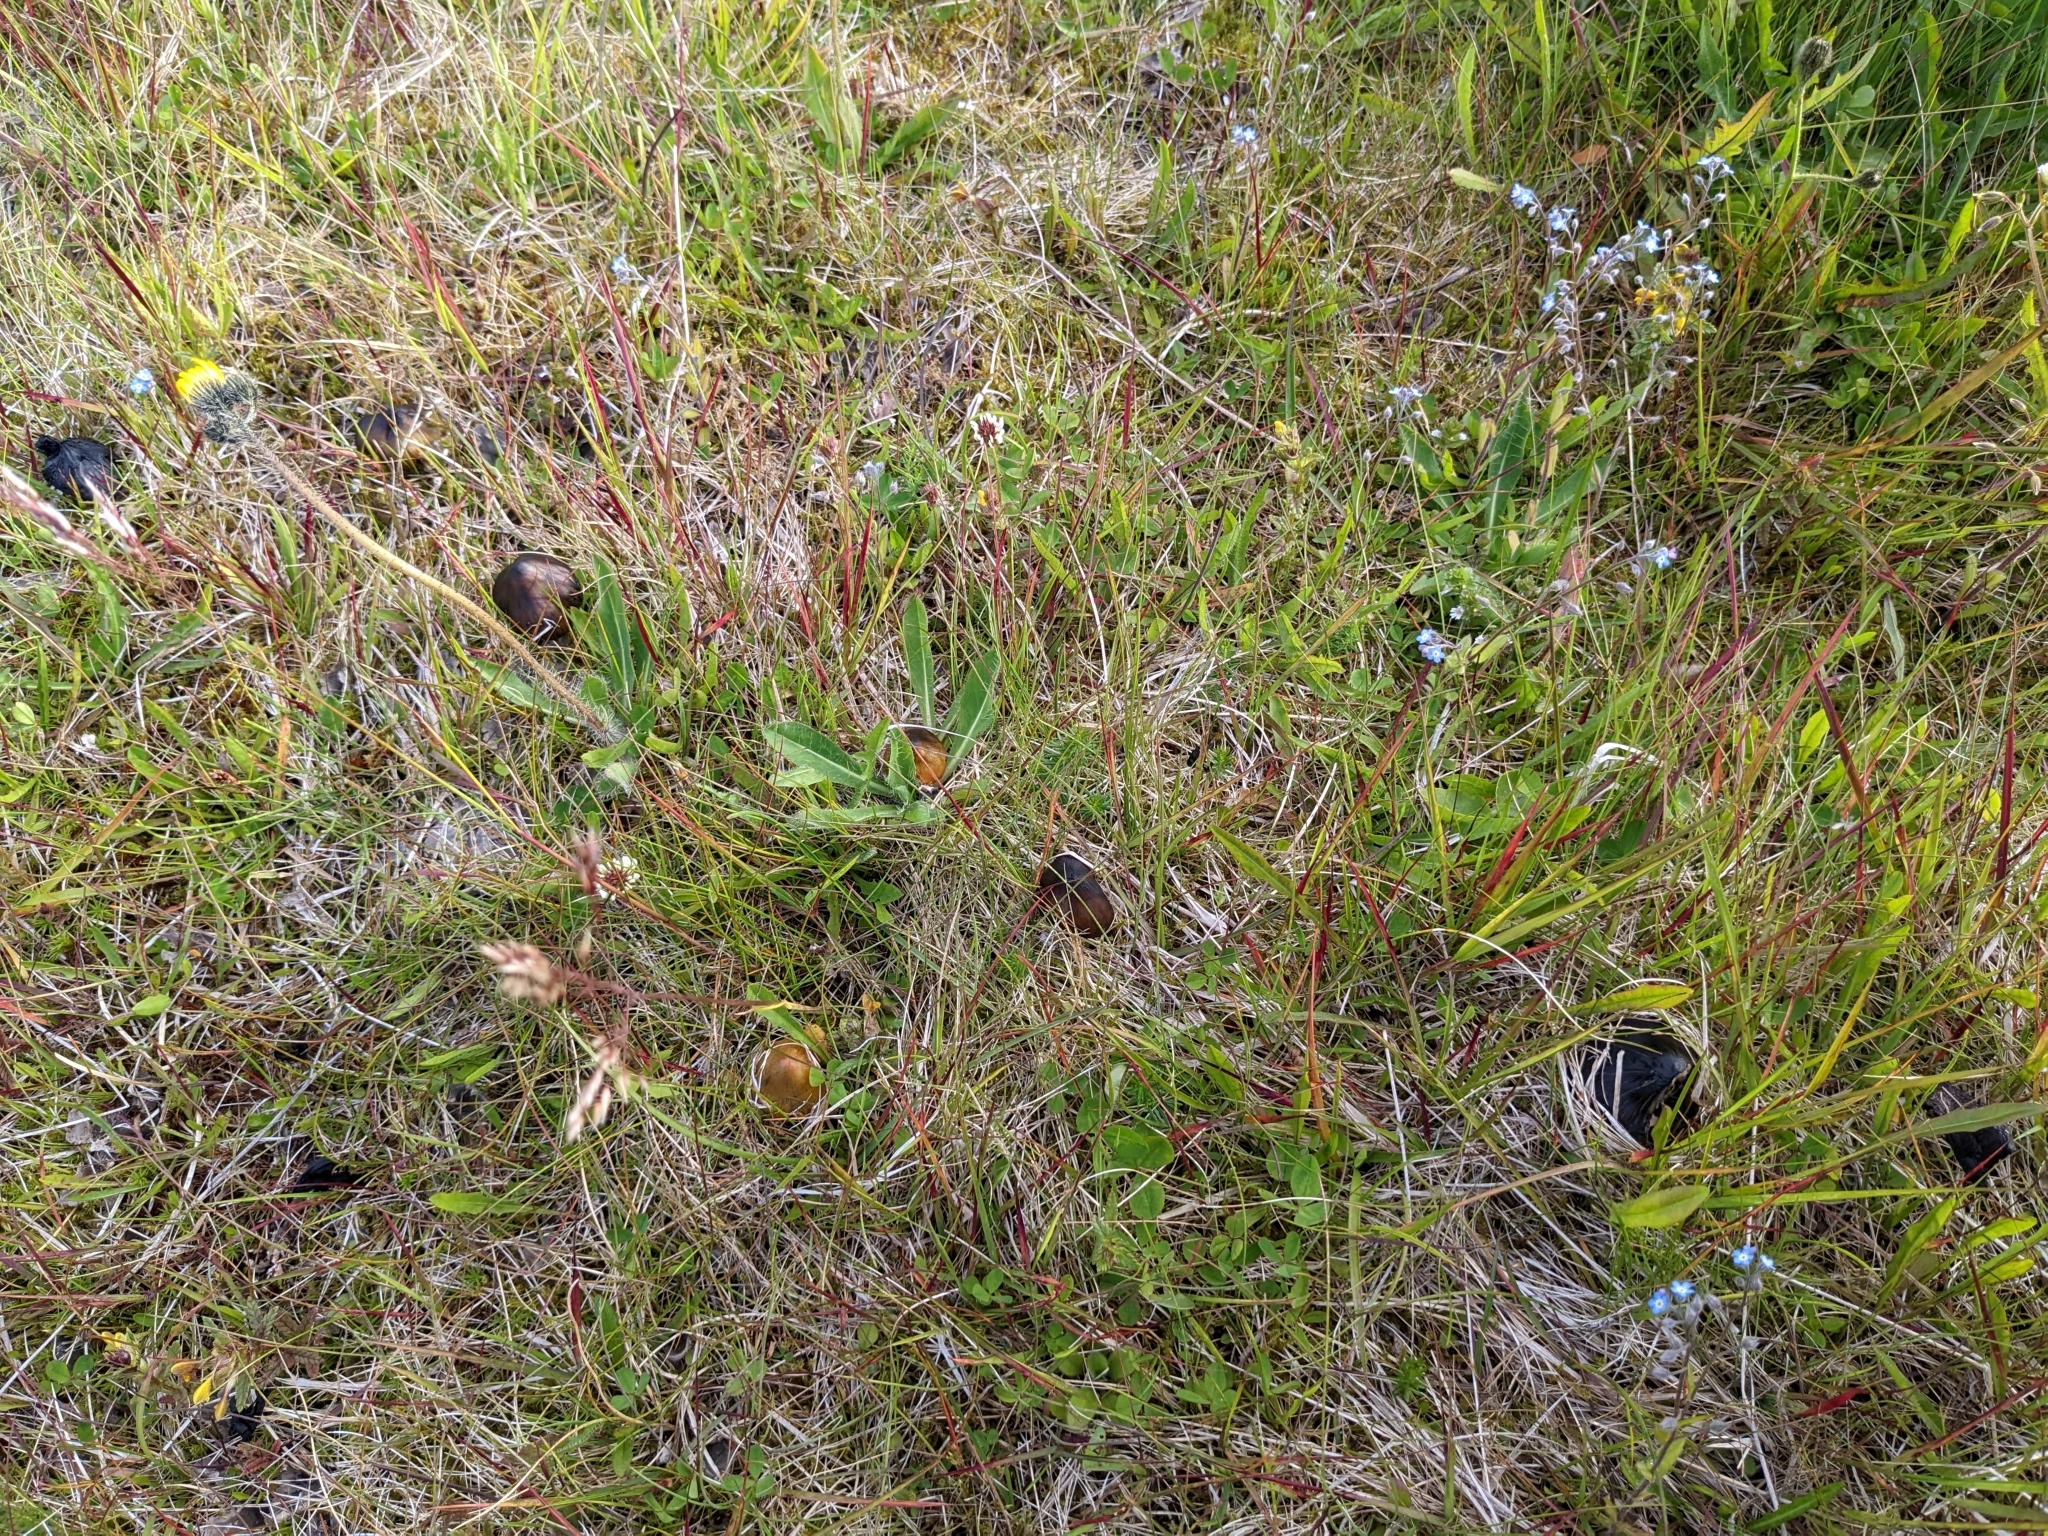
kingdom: Fungi
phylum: Basidiomycota
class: Agaricomycetes
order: Agaricales
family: Hygrophoraceae
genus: Hygrocybe
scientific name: Hygrocybe conica
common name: Blackening wax-cap
